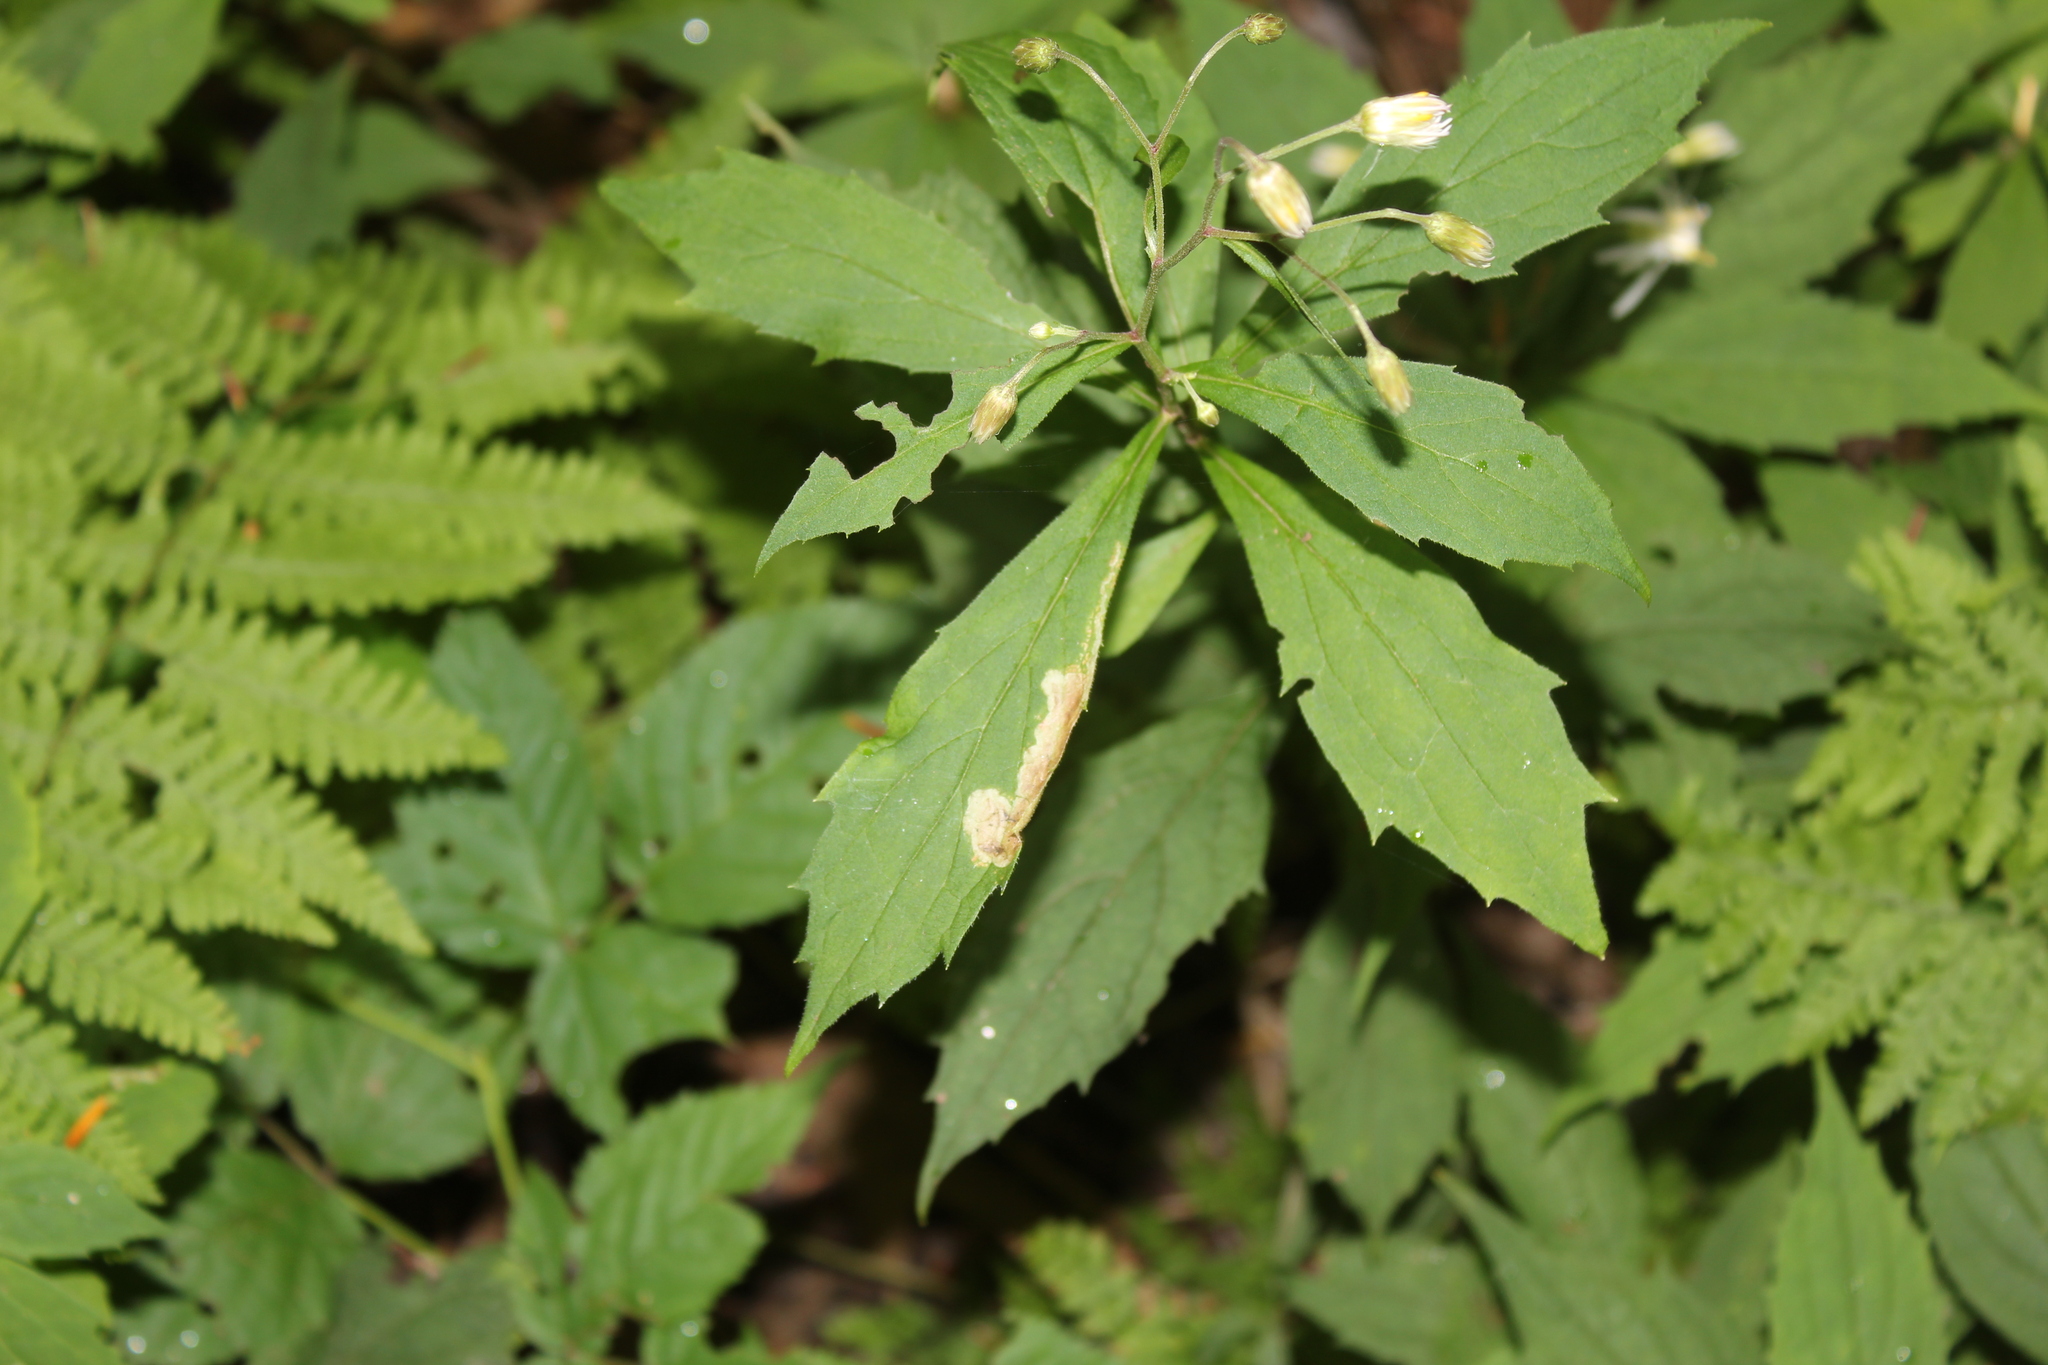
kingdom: Plantae
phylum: Tracheophyta
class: Magnoliopsida
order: Asterales
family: Asteraceae
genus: Oclemena
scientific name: Oclemena acuminata
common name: Mountain aster
